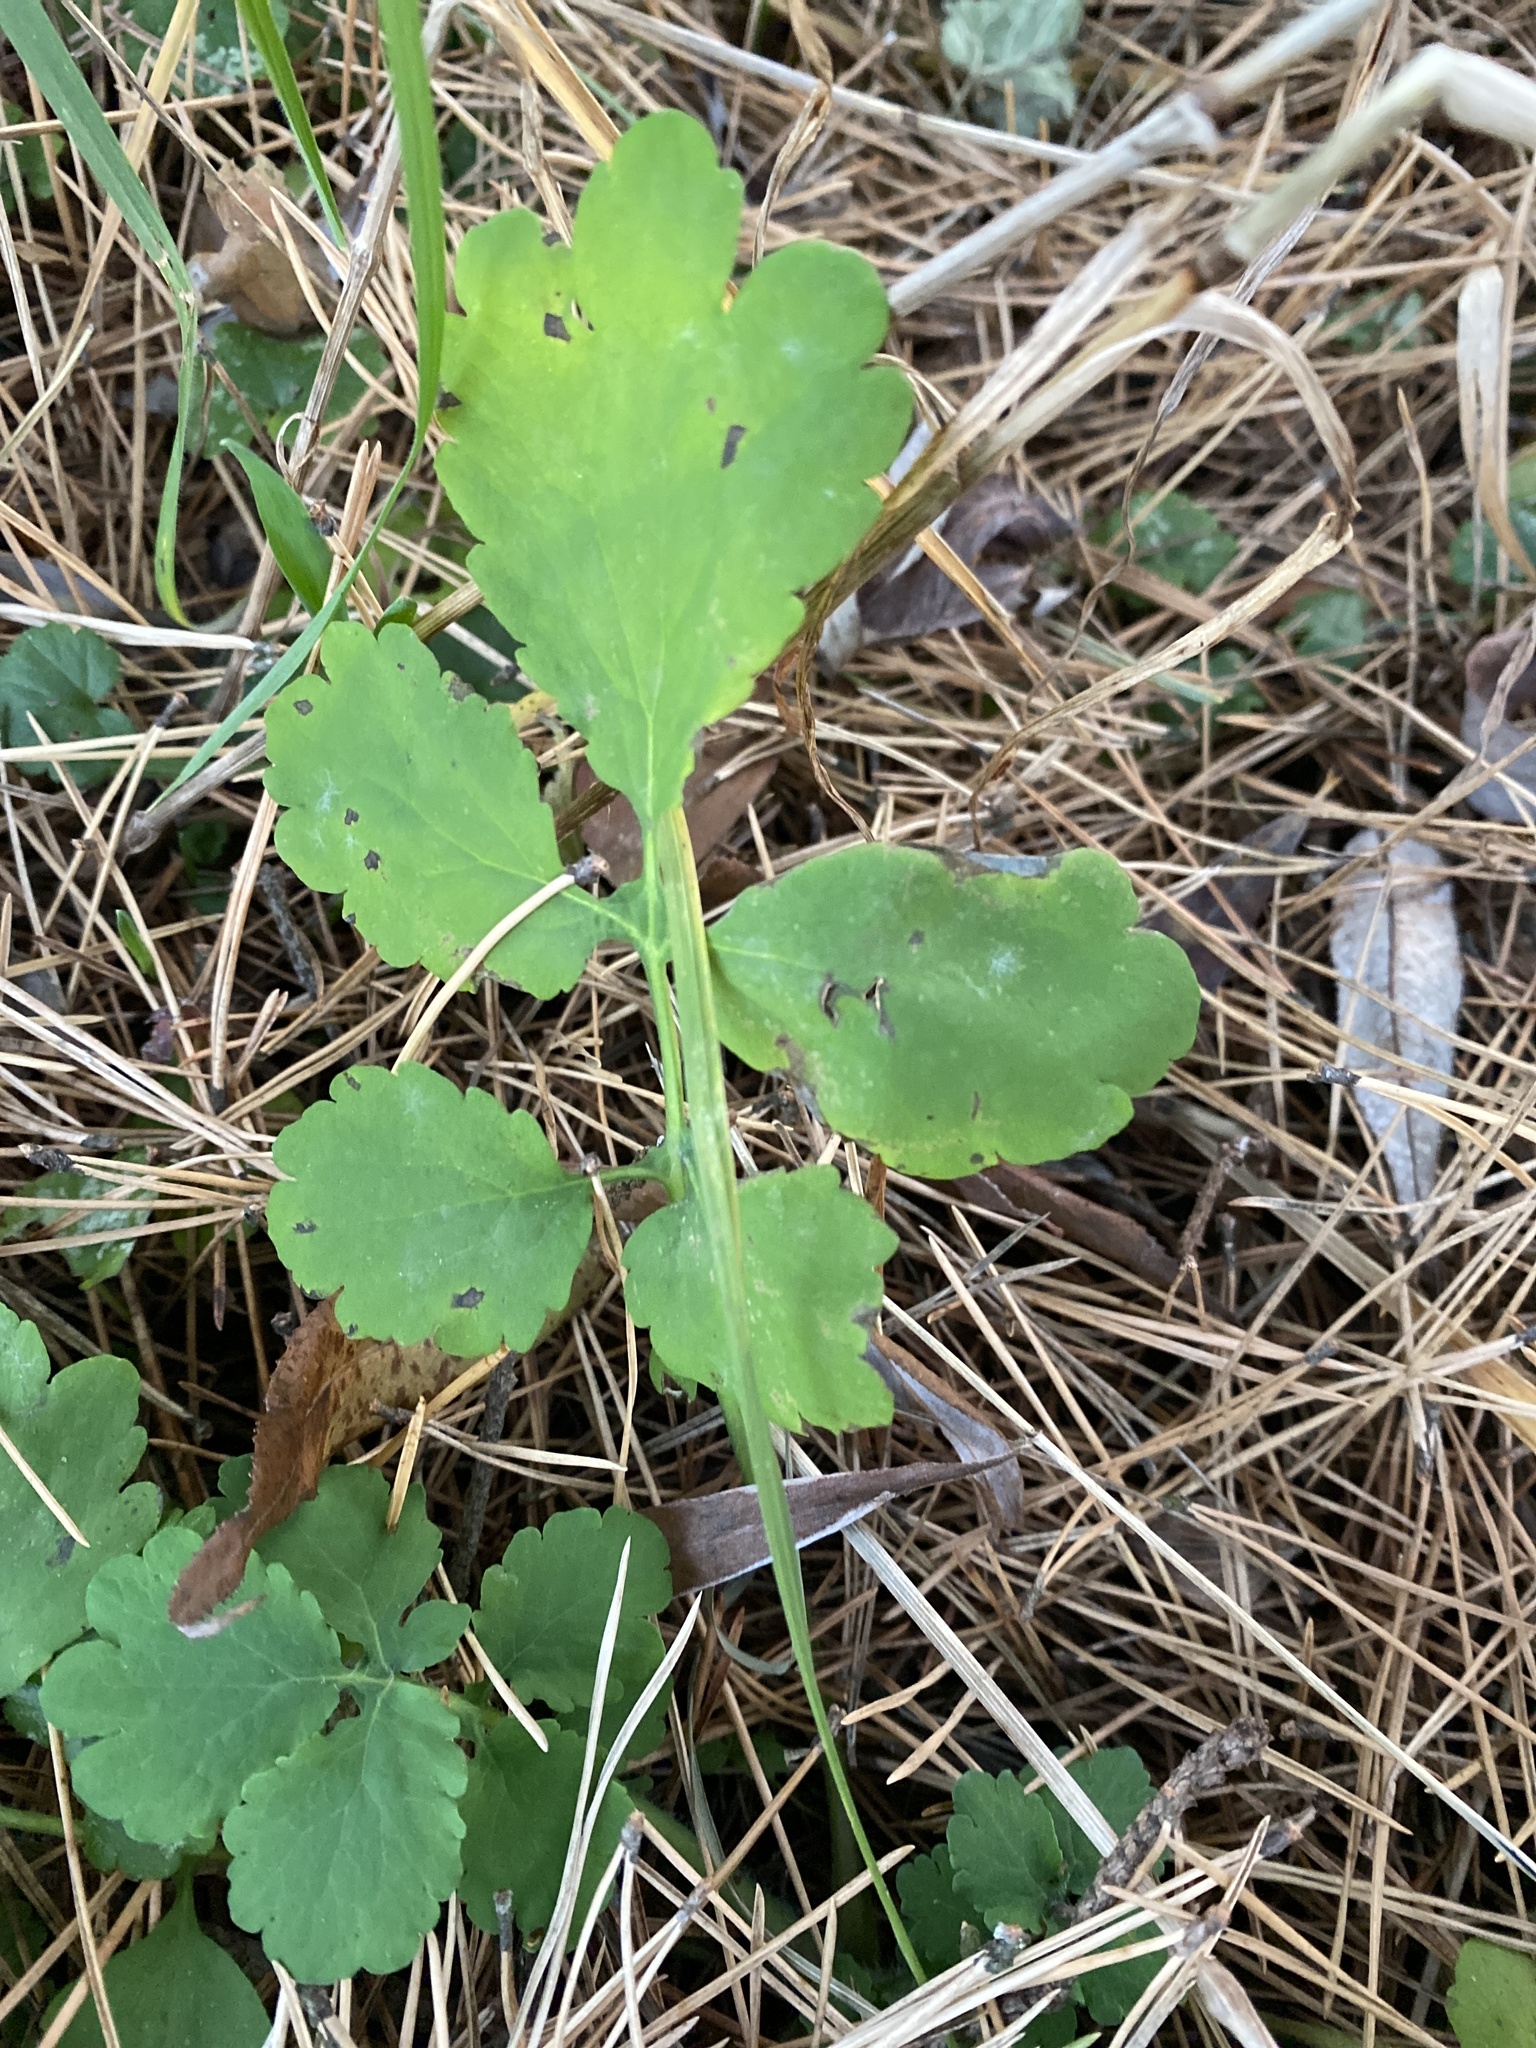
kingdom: Plantae
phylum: Tracheophyta
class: Magnoliopsida
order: Ranunculales
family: Papaveraceae
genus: Chelidonium
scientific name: Chelidonium majus
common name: Greater celandine
